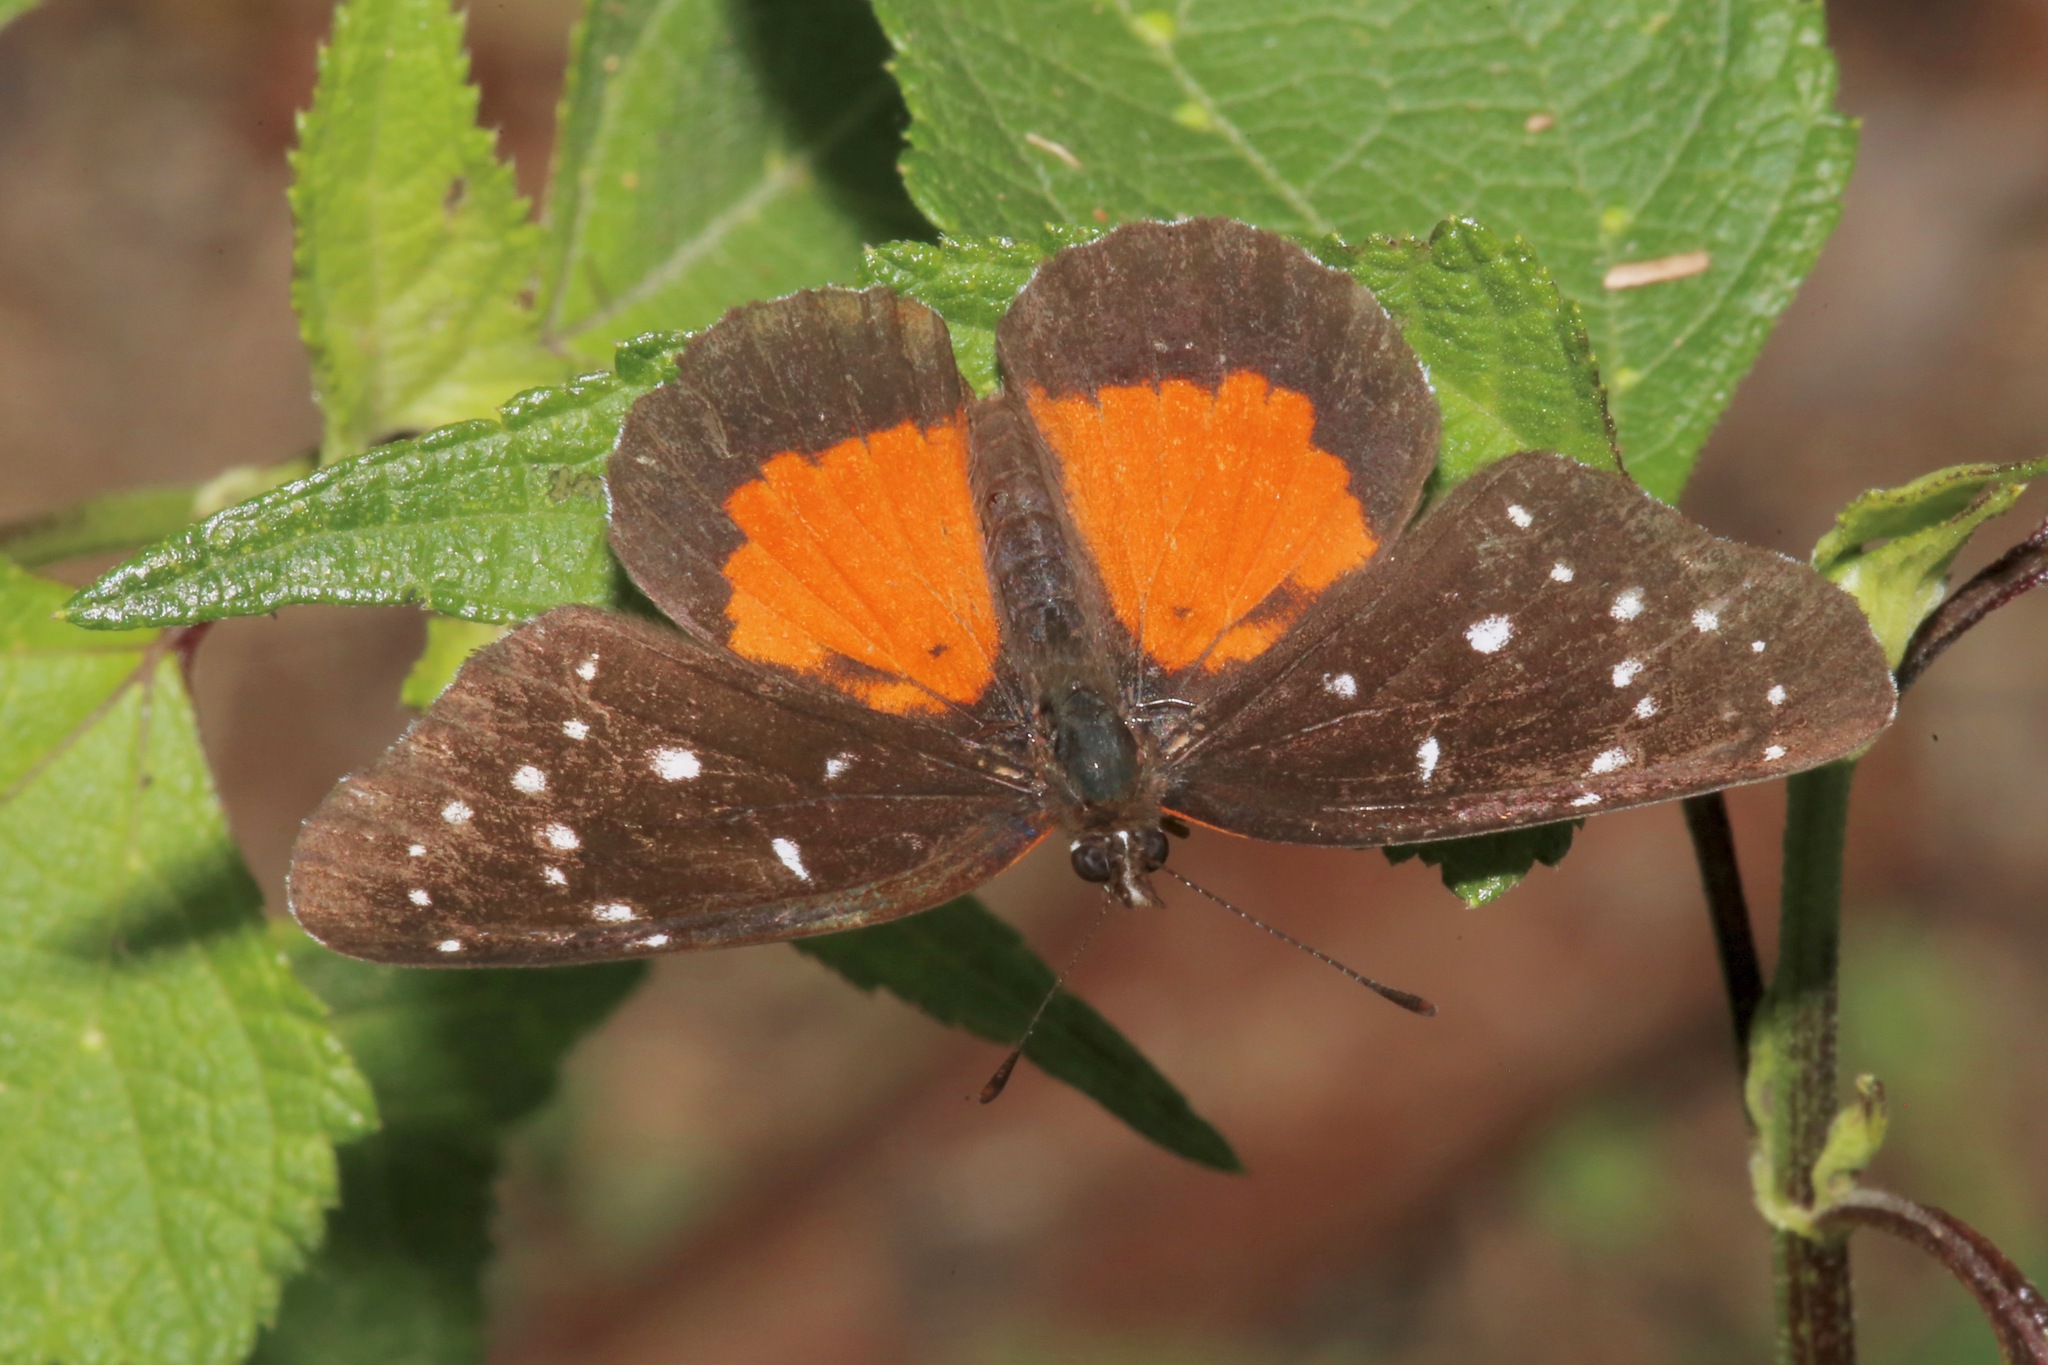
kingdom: Animalia
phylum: Arthropoda
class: Insecta
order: Lepidoptera
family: Nymphalidae
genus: Chlosyne
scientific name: Chlosyne janais
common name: Crimson patch
